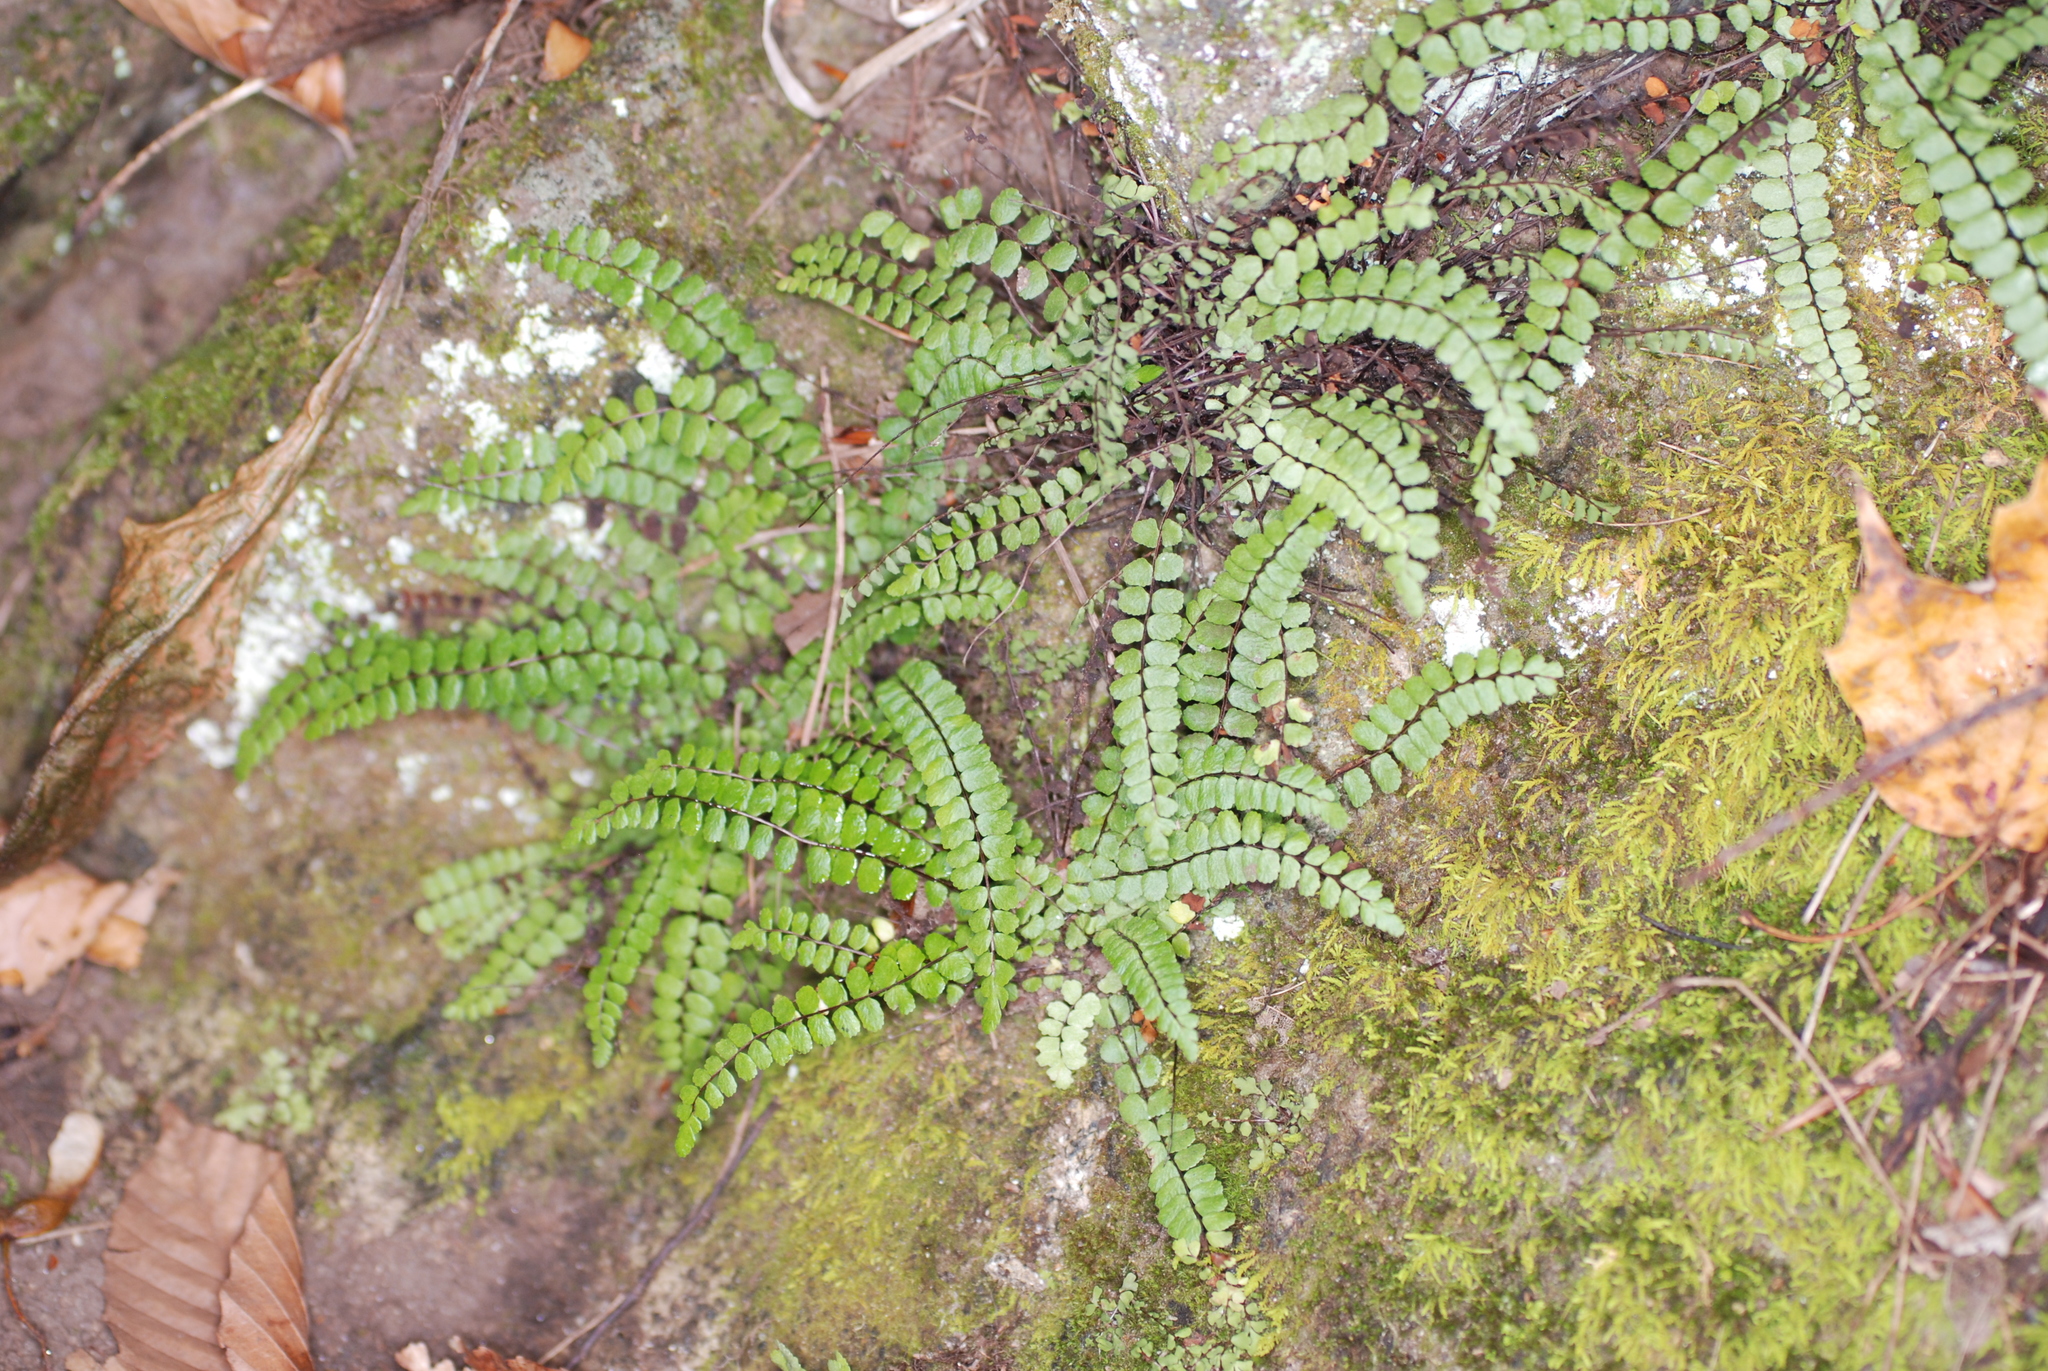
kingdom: Plantae
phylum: Tracheophyta
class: Polypodiopsida
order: Polypodiales
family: Aspleniaceae
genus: Asplenium
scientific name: Asplenium trichomanes
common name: Maidenhair spleenwort
